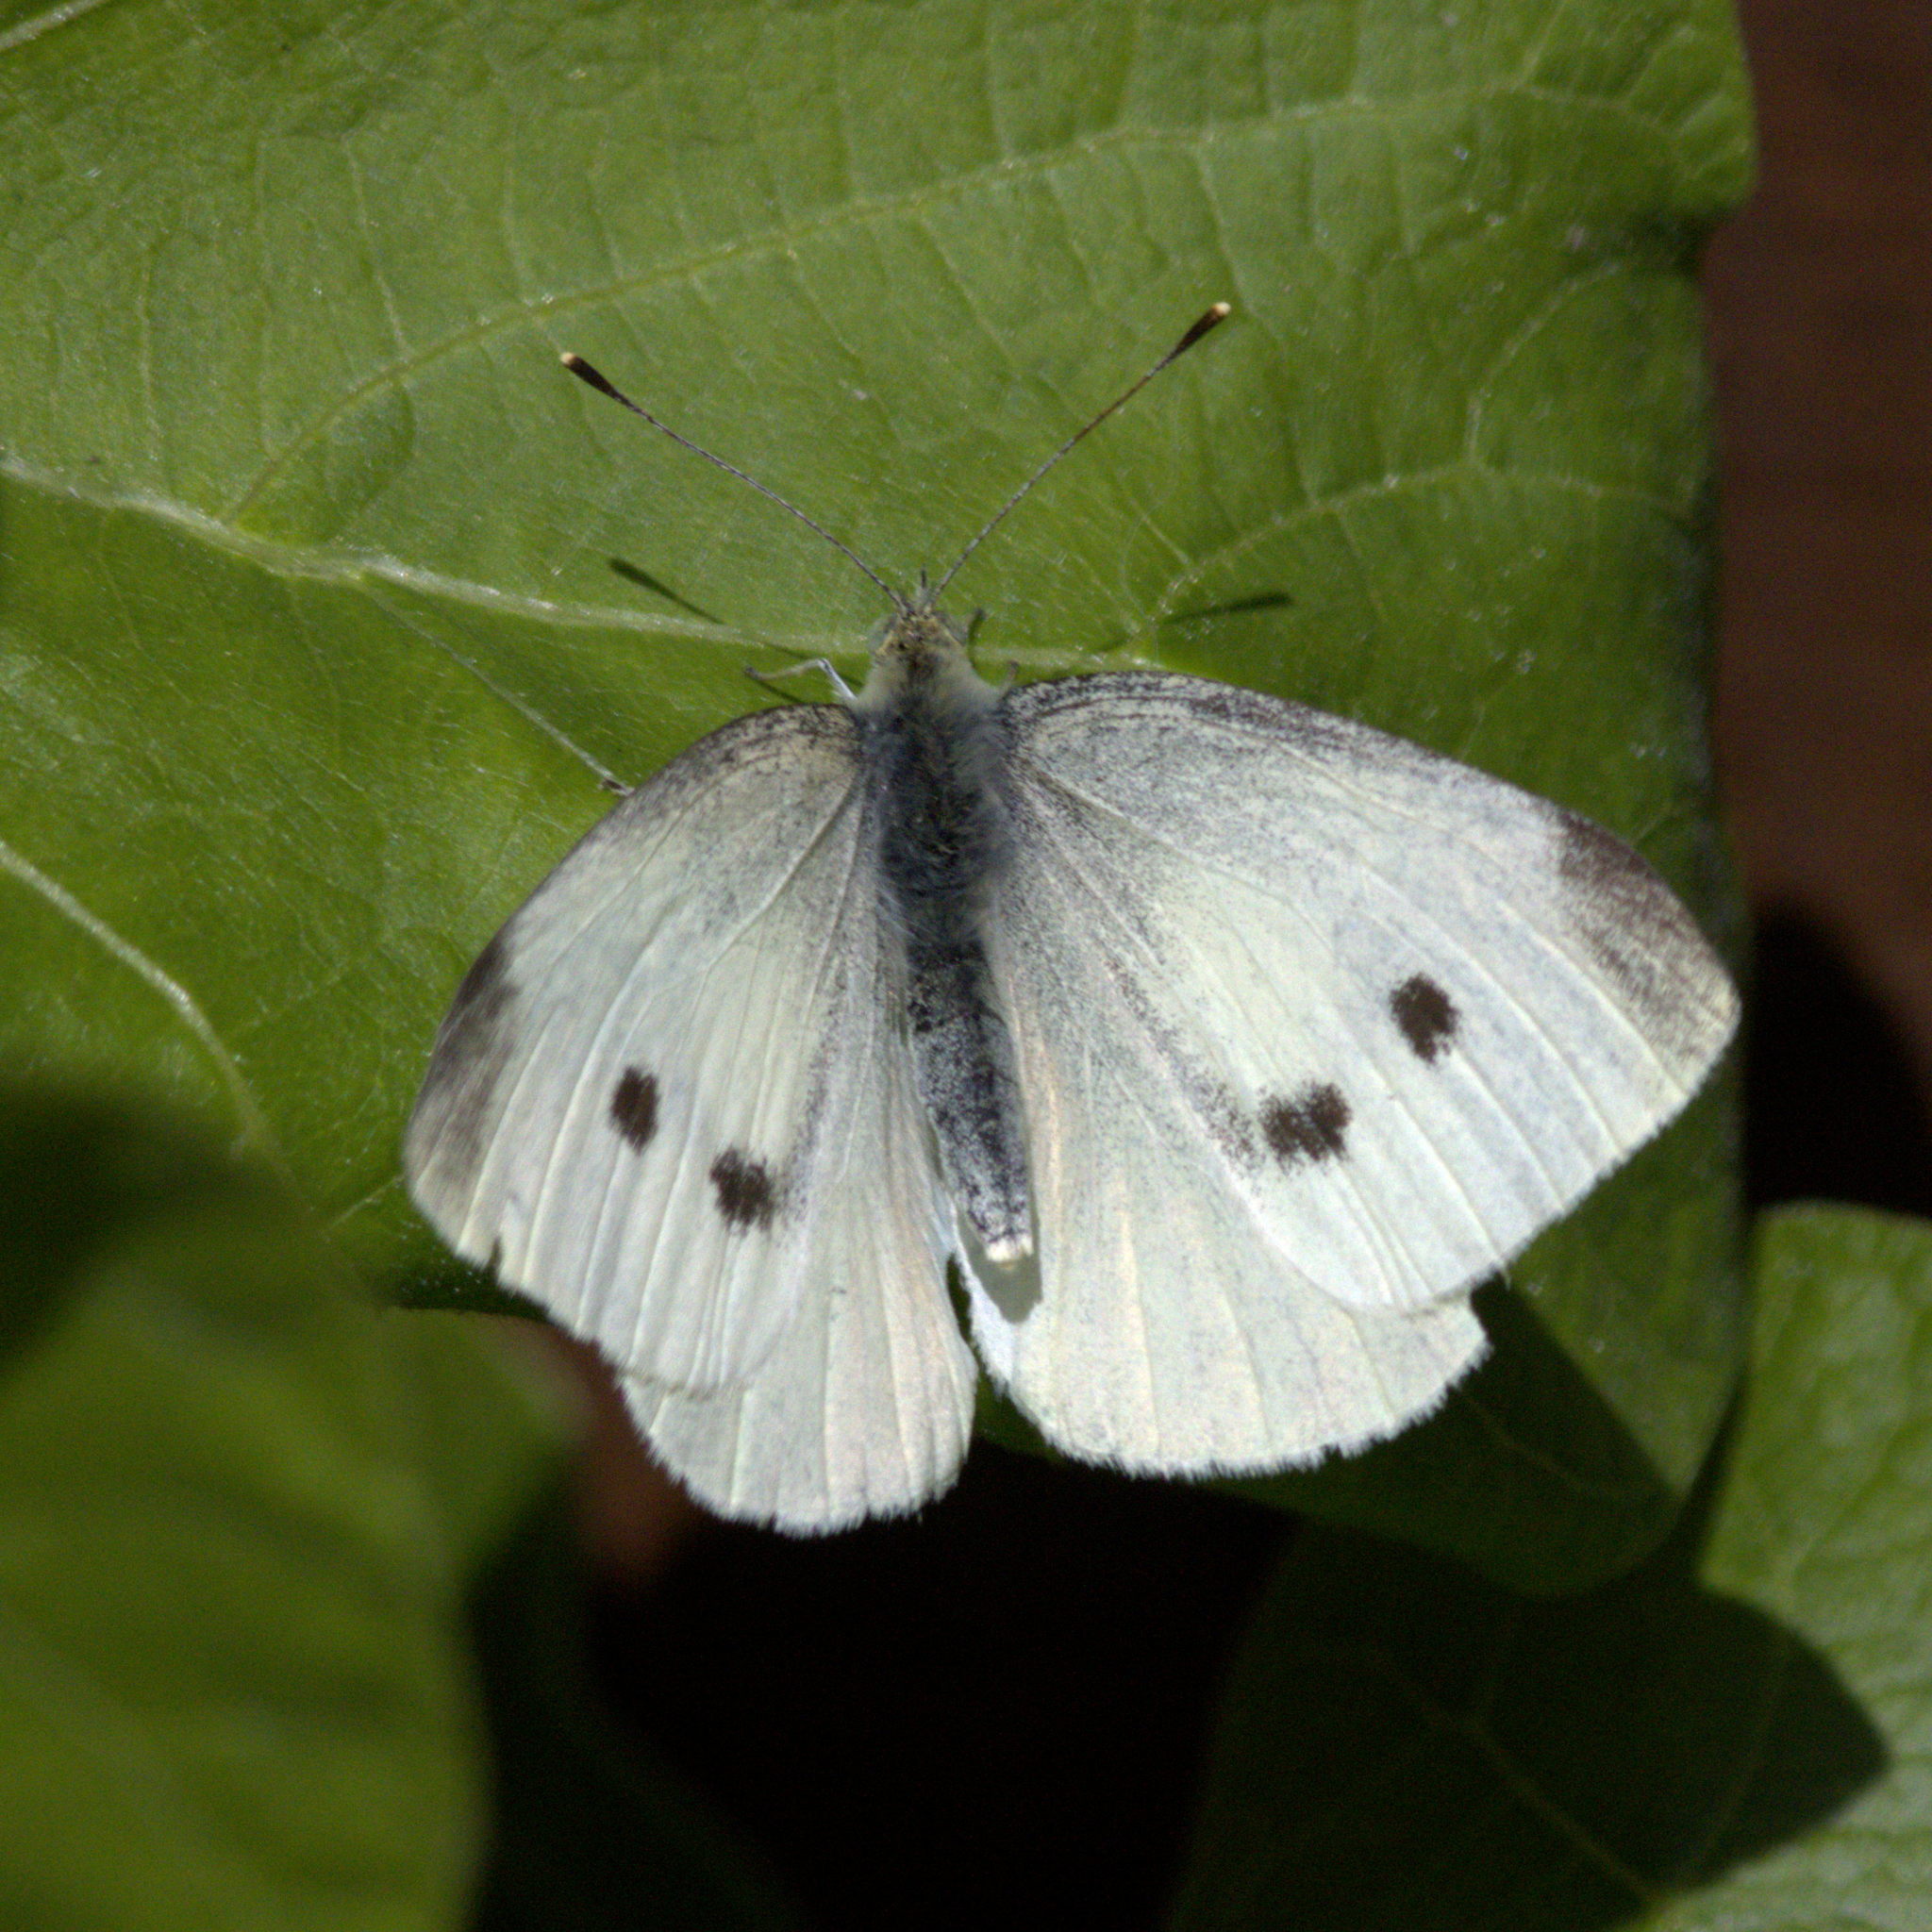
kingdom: Animalia
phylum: Arthropoda
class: Insecta
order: Lepidoptera
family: Pieridae
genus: Pieris
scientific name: Pieris rapae
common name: Small white
